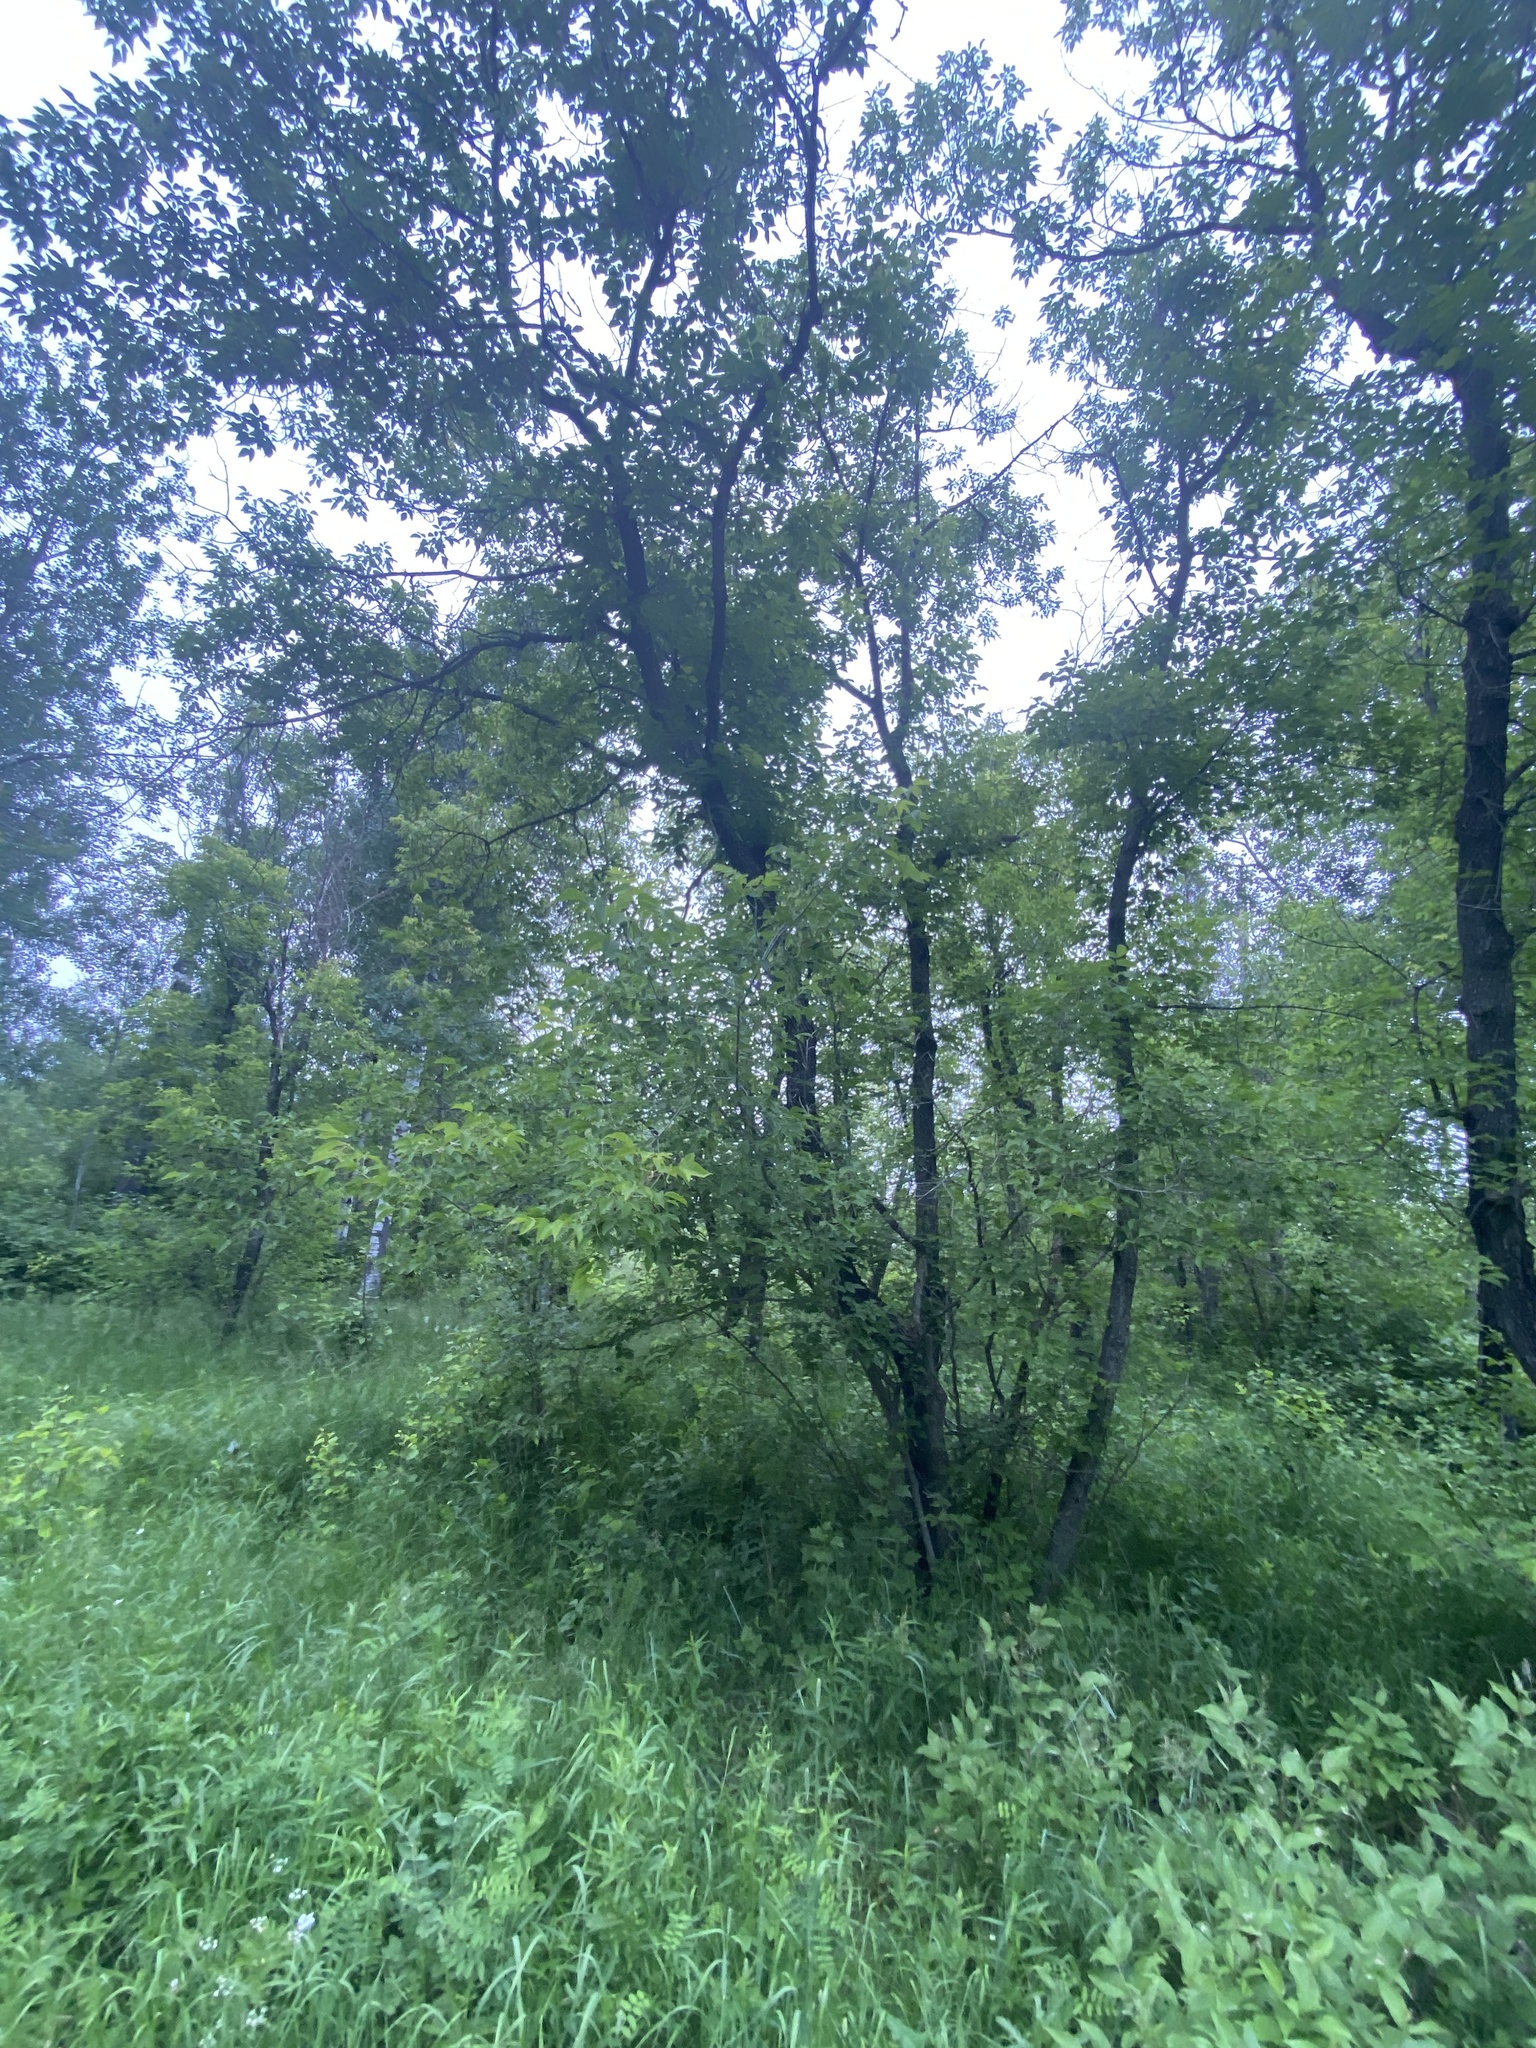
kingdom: Plantae
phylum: Tracheophyta
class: Magnoliopsida
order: Sapindales
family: Sapindaceae
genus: Acer
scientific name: Acer negundo
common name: Ashleaf maple
